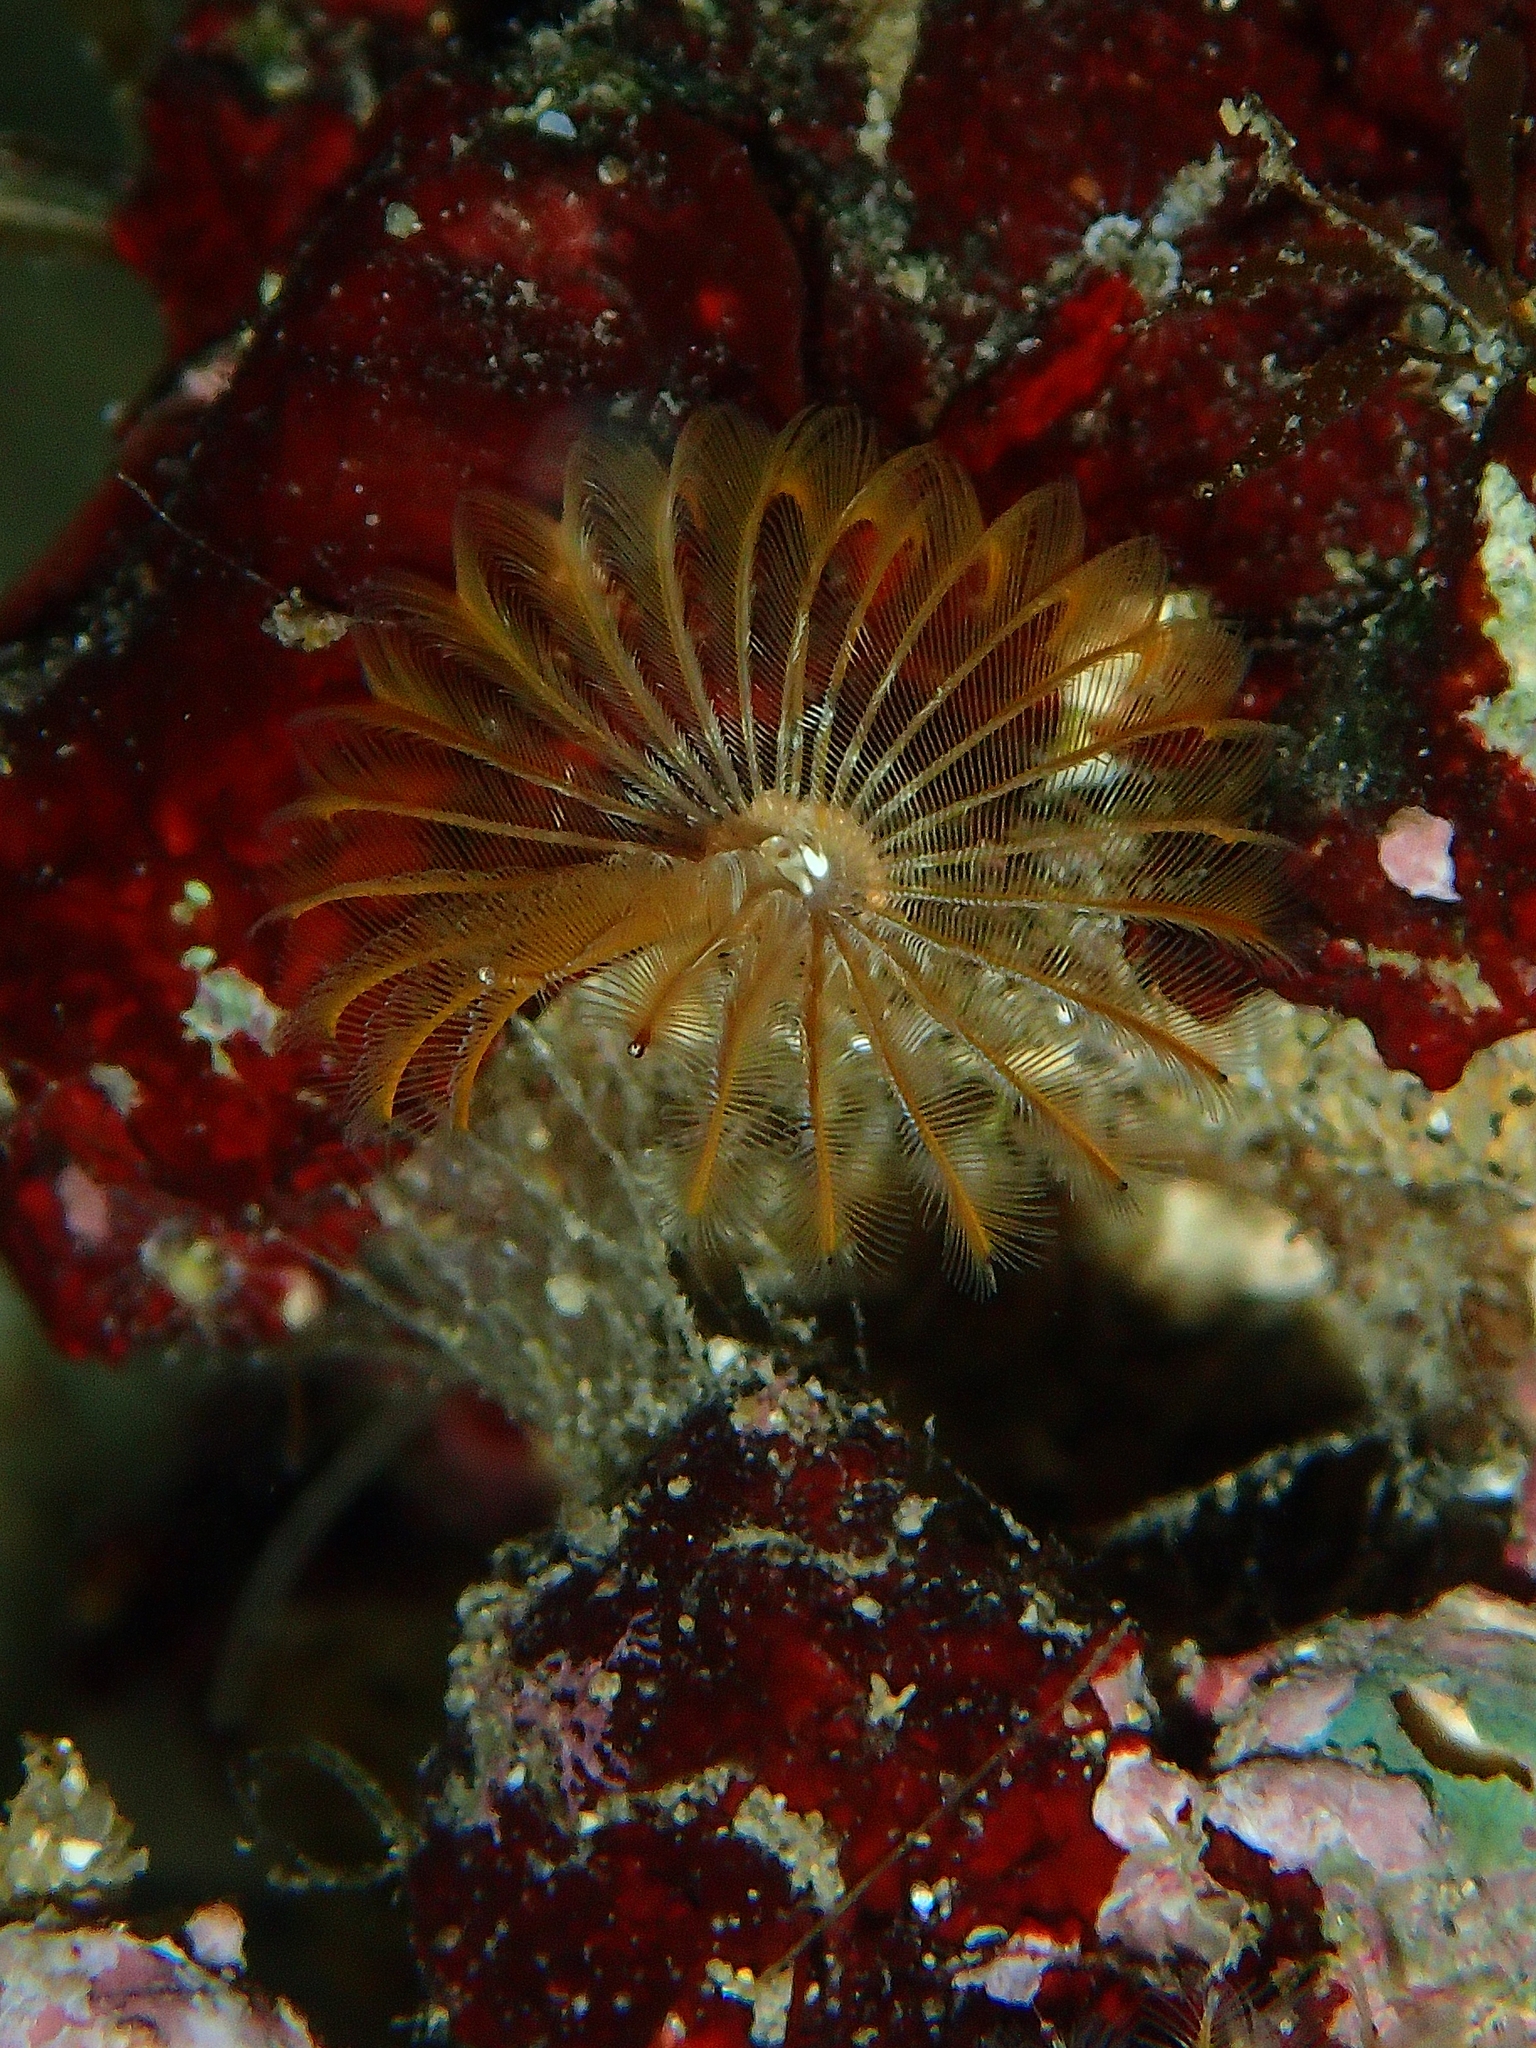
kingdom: Animalia
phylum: Annelida
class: Polychaeta
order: Sabellida
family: Sabellidae
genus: Acromegalomma
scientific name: Acromegalomma vesiculosum
